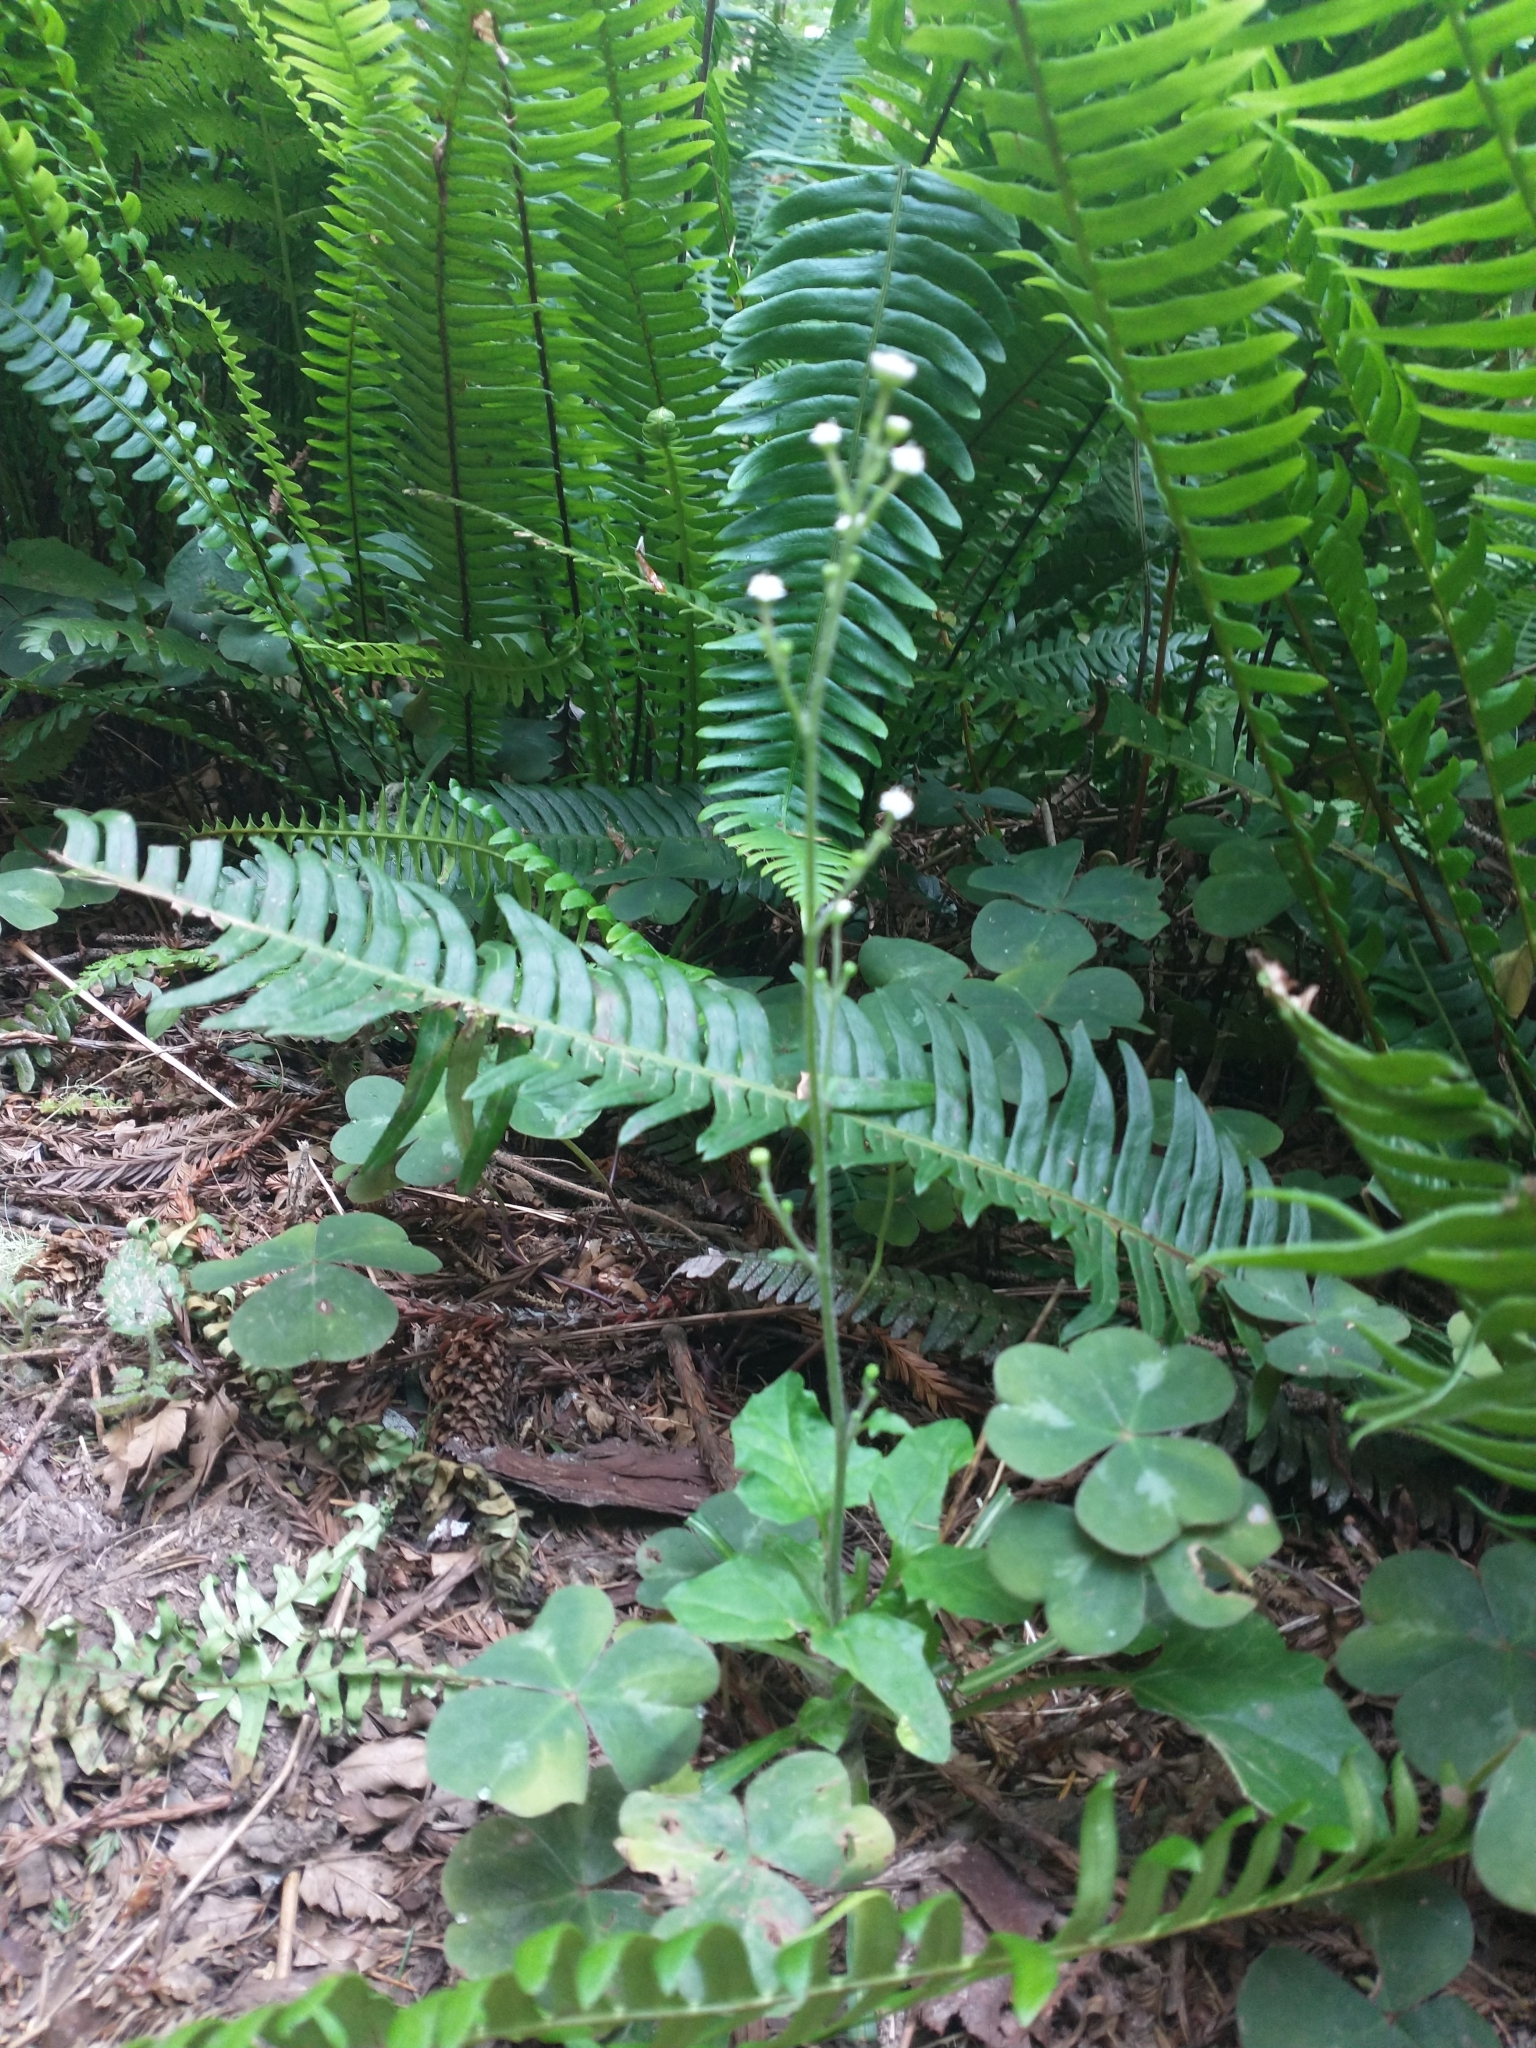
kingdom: Plantae
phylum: Tracheophyta
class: Magnoliopsida
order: Asterales
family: Asteraceae
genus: Adenocaulon
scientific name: Adenocaulon bicolor
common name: Trailplant
